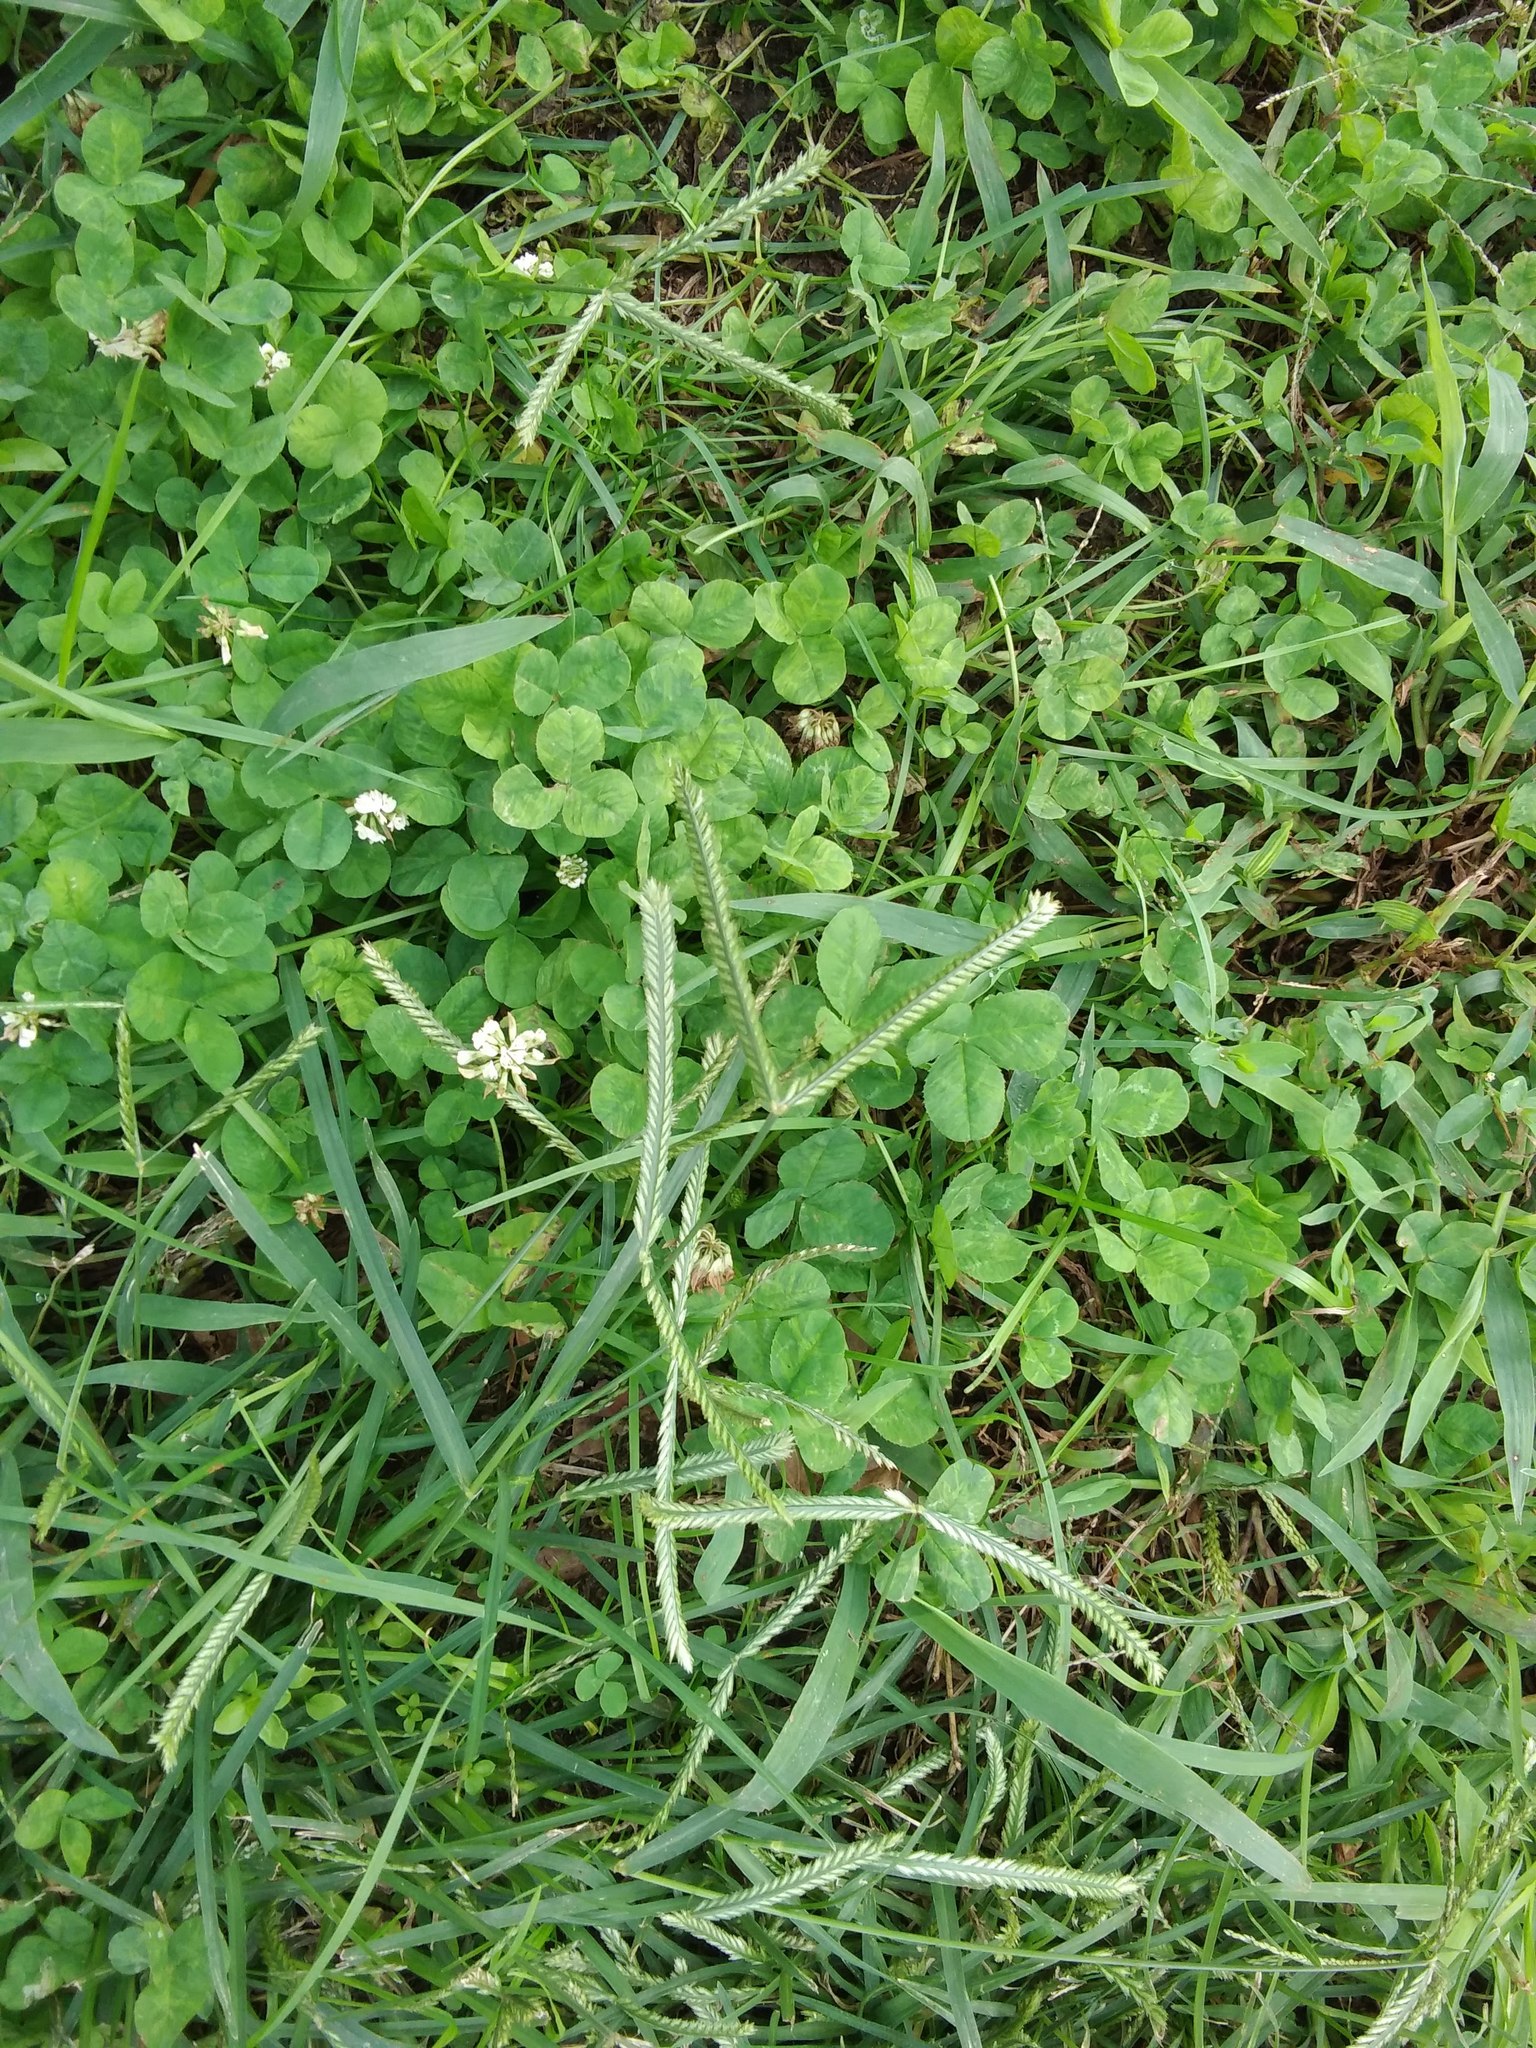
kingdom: Plantae
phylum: Tracheophyta
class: Liliopsida
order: Poales
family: Poaceae
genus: Eleusine
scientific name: Eleusine indica
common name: Yard-grass
